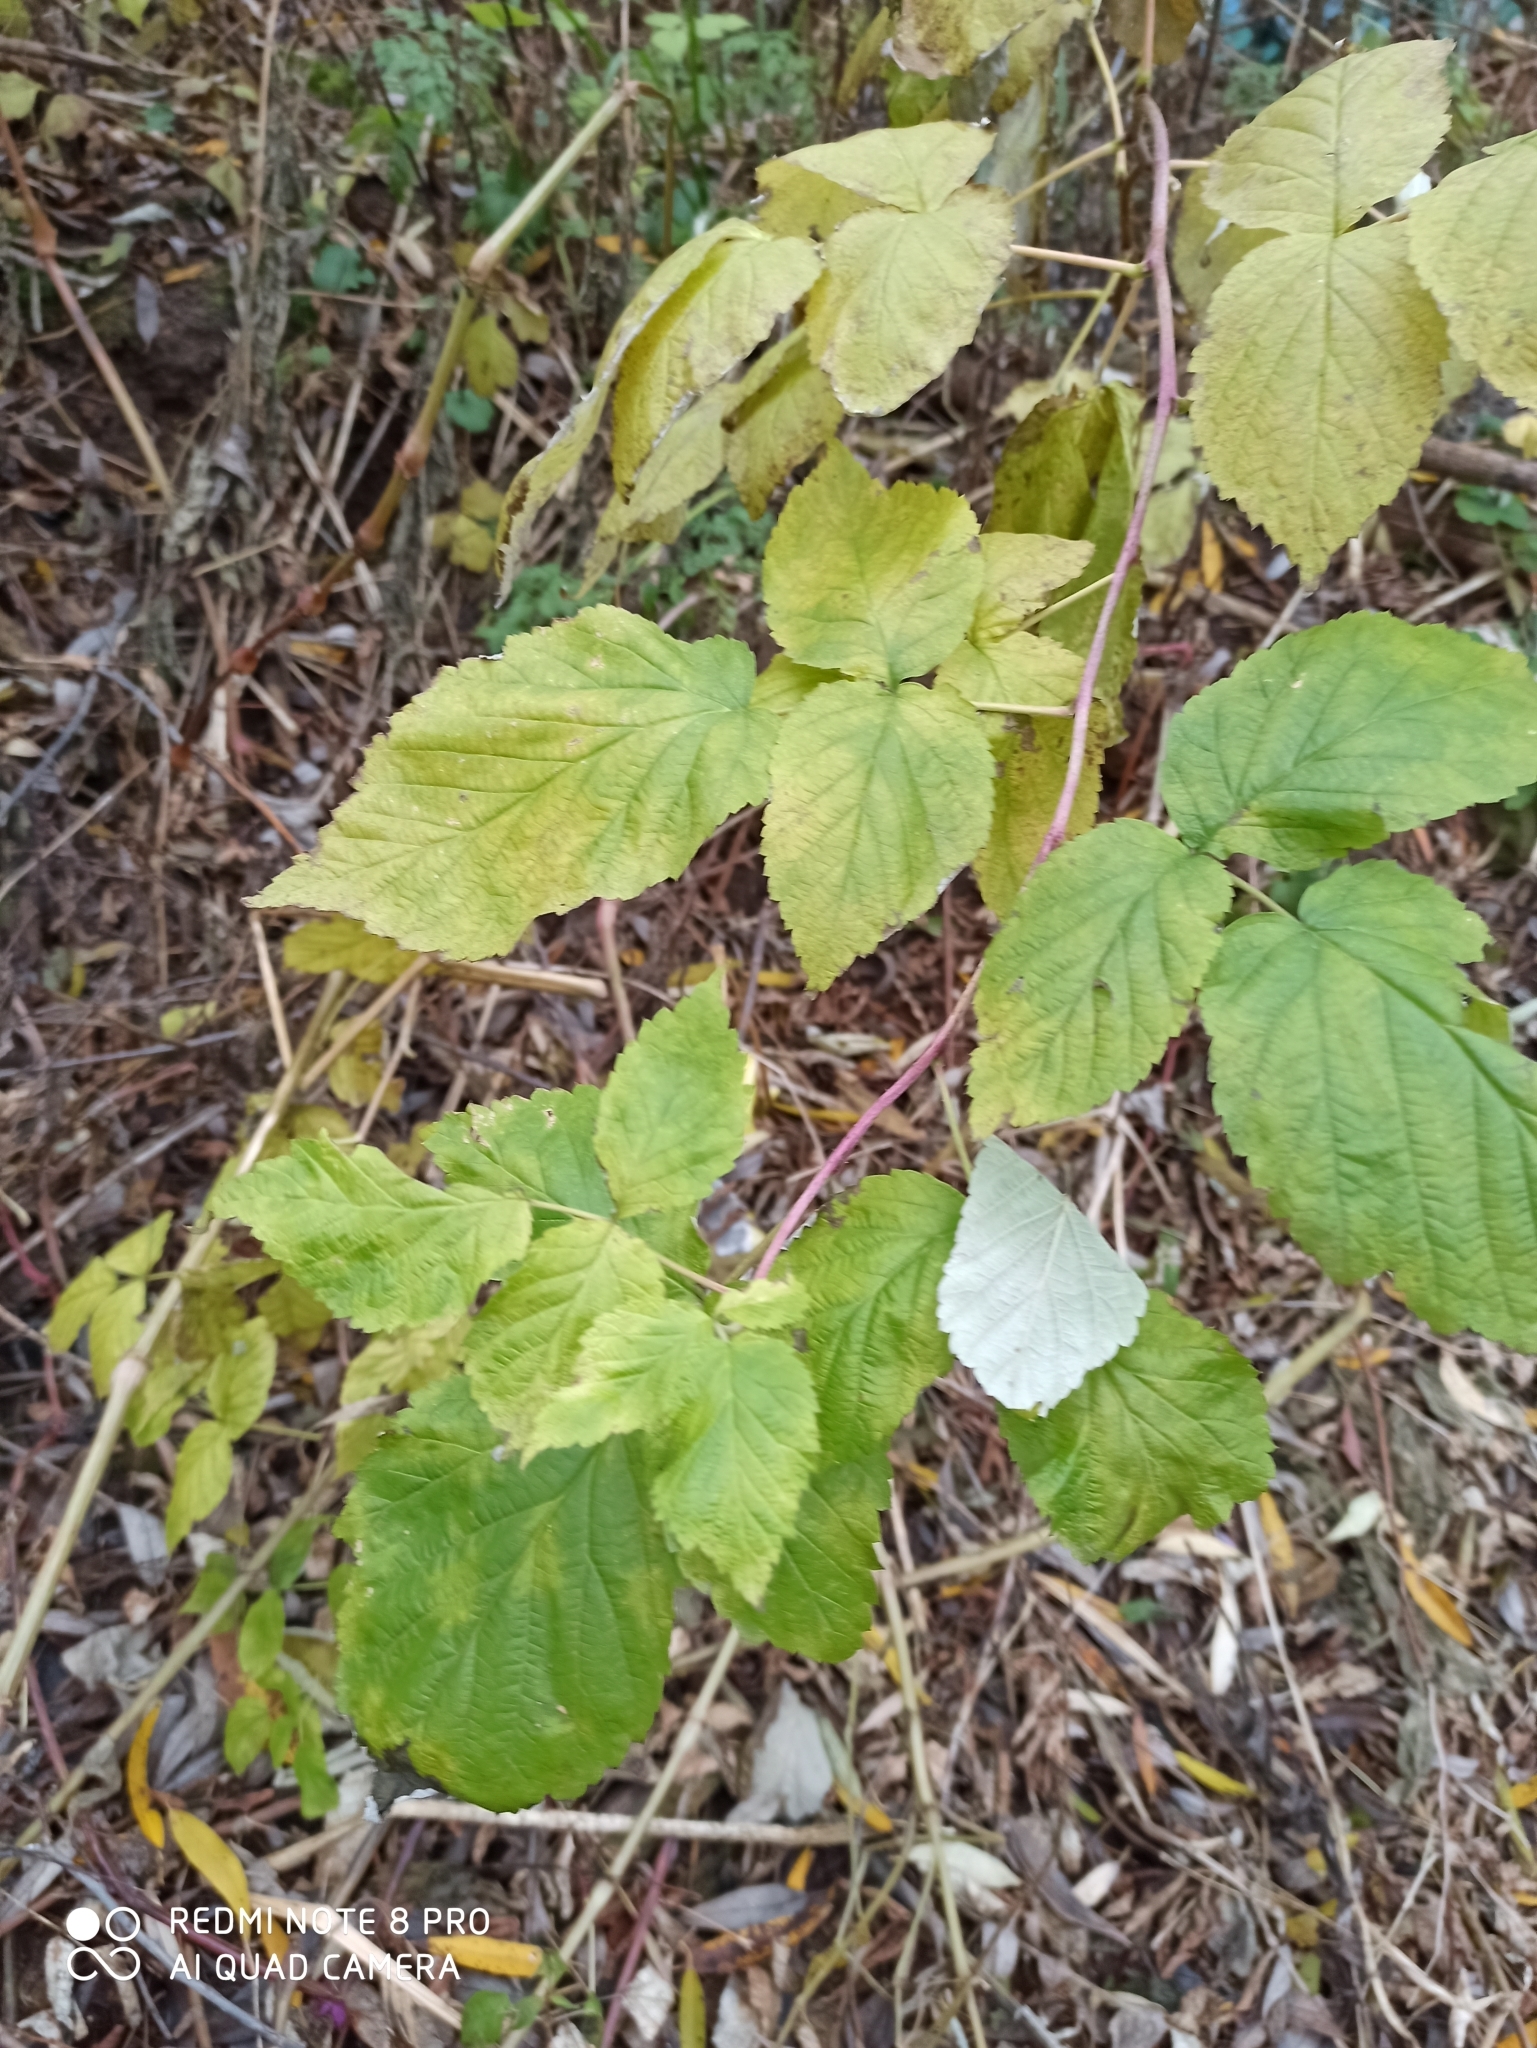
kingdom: Plantae
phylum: Tracheophyta
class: Magnoliopsida
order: Rosales
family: Rosaceae
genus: Rubus
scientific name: Rubus idaeus
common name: Raspberry
